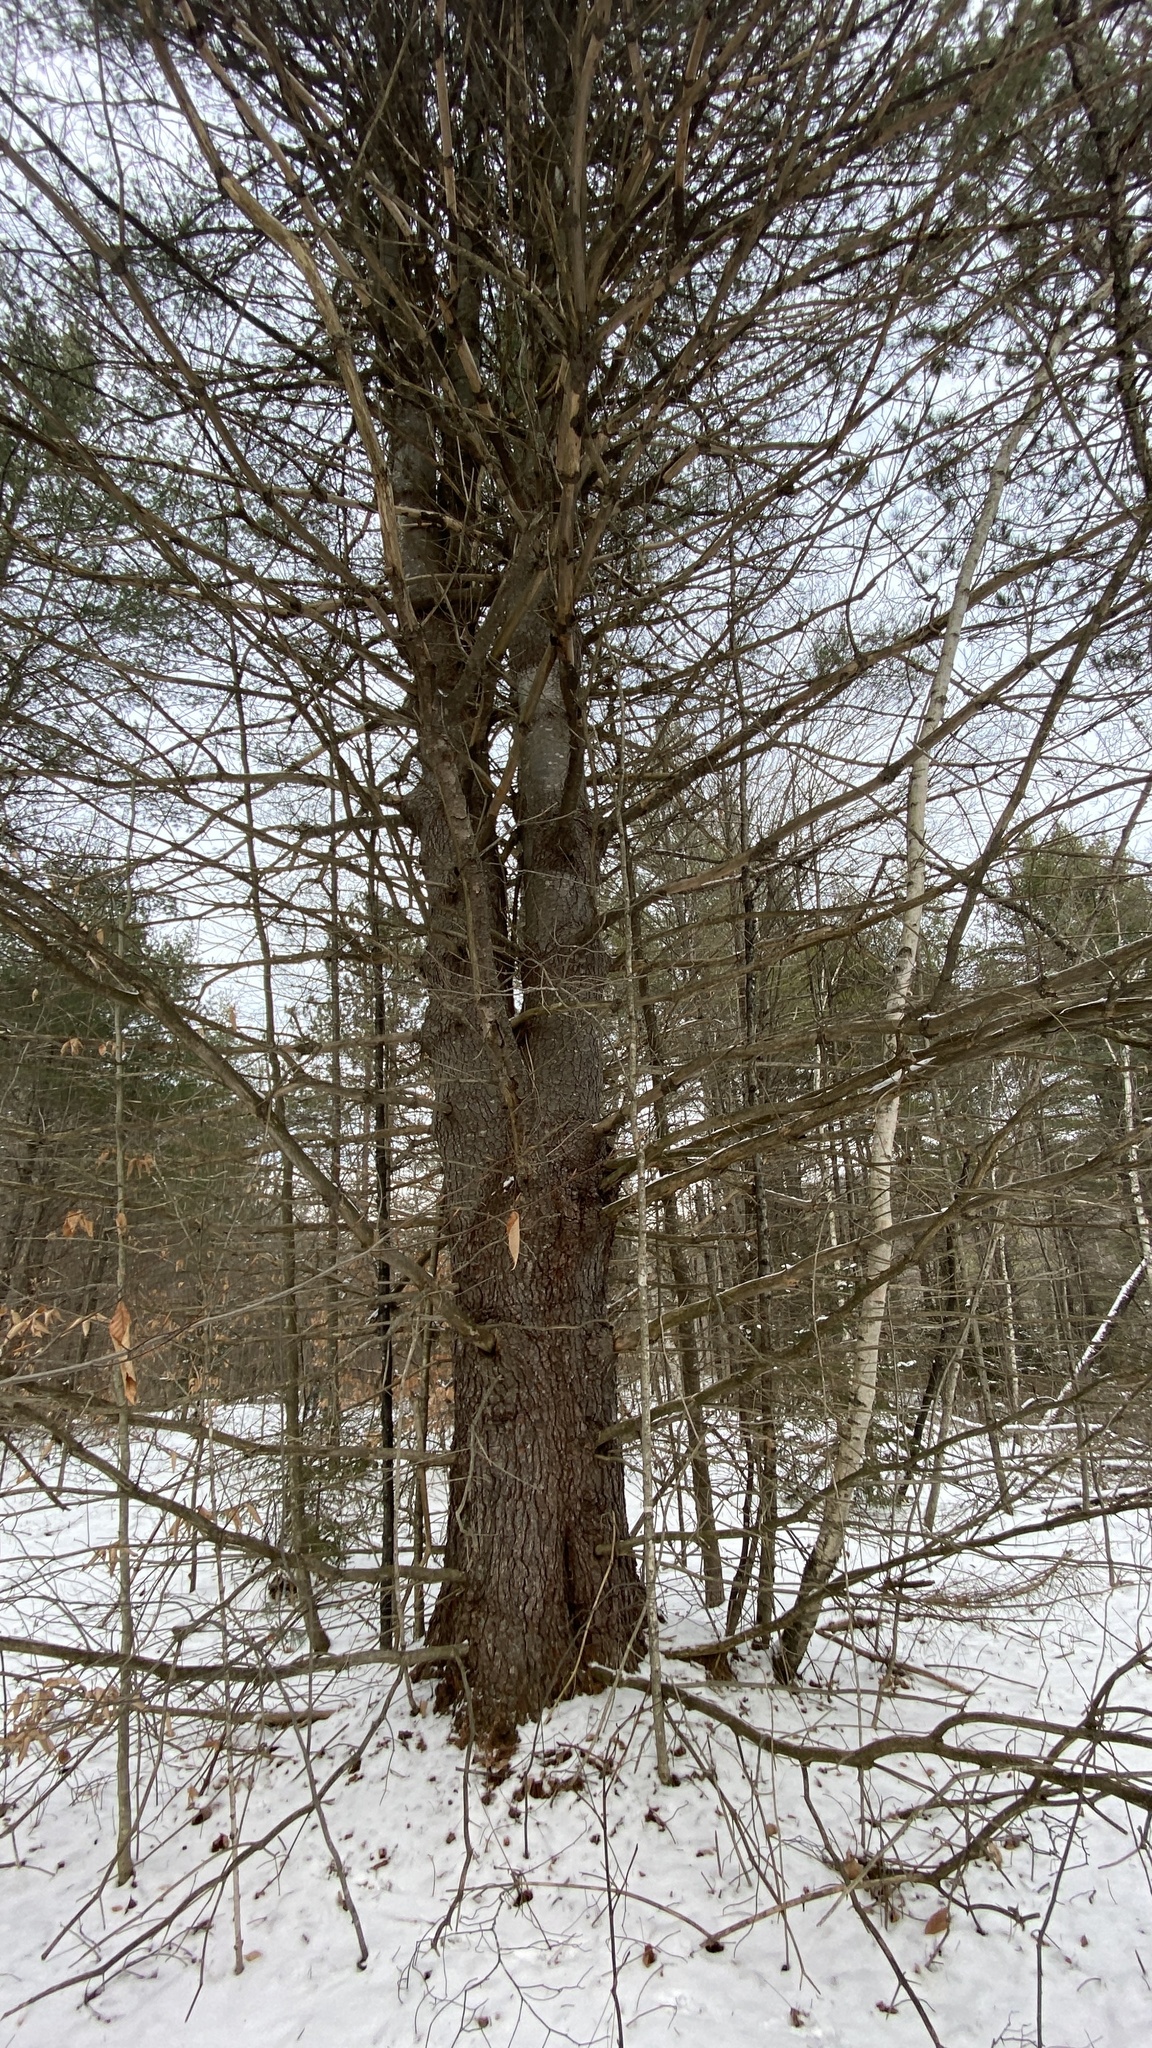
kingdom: Plantae
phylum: Tracheophyta
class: Pinopsida
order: Pinales
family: Pinaceae
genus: Pinus
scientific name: Pinus strobus
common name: Weymouth pine
